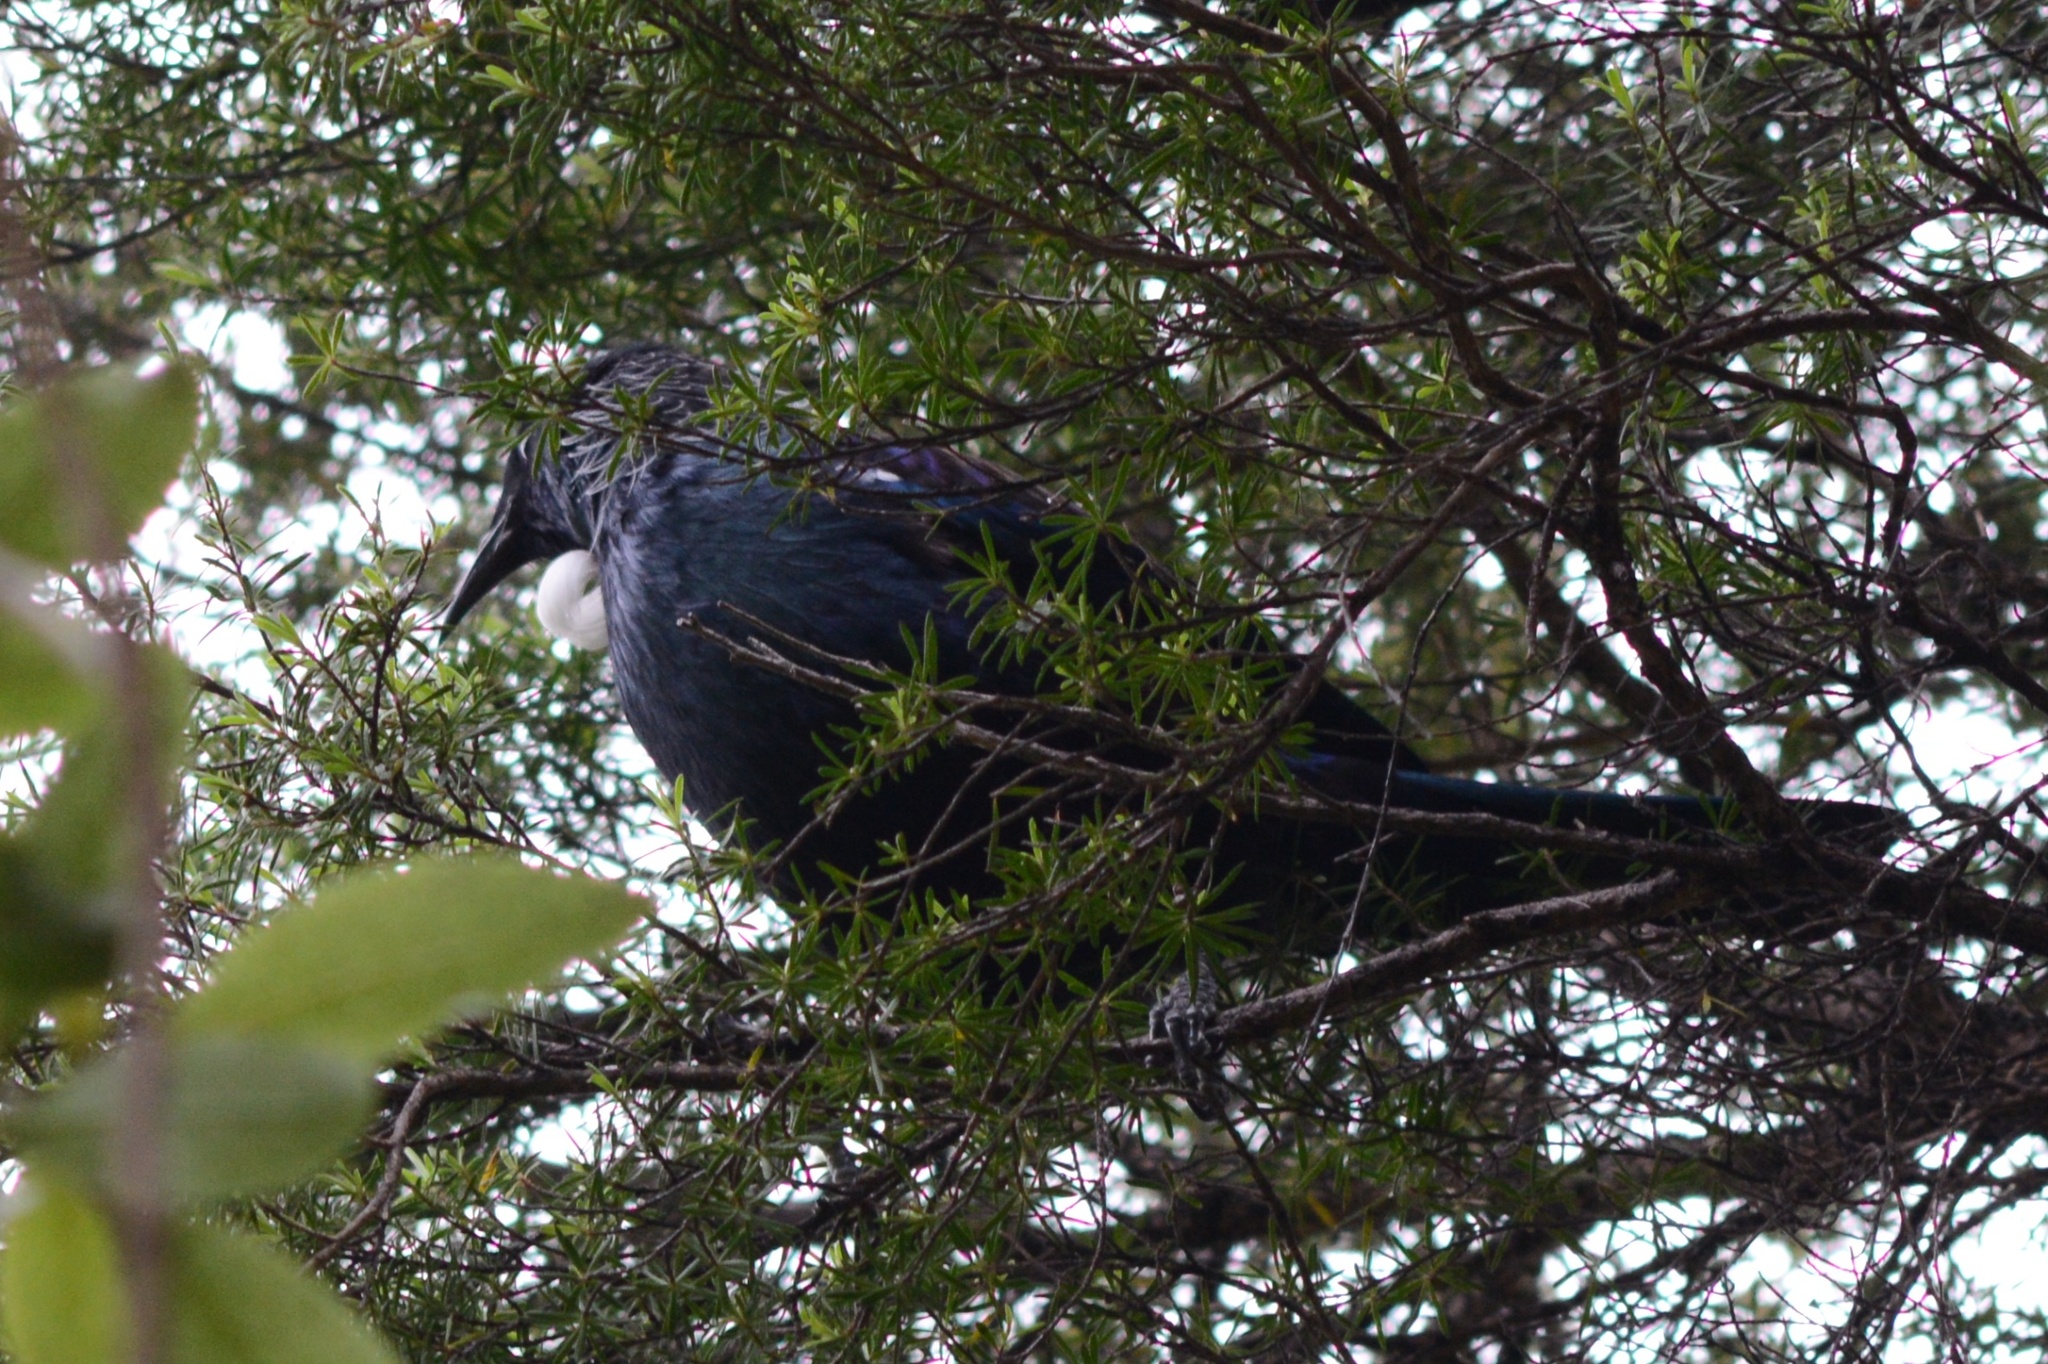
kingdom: Animalia
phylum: Chordata
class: Aves
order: Passeriformes
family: Meliphagidae
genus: Prosthemadera
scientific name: Prosthemadera novaeseelandiae
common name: Tui
